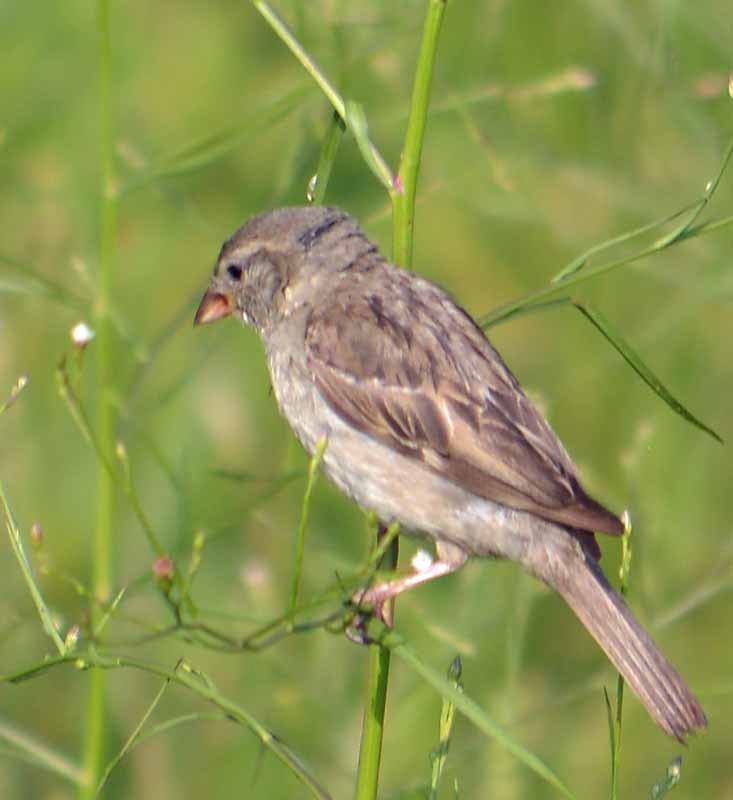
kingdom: Animalia
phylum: Chordata
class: Aves
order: Passeriformes
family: Passeridae
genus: Passer
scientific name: Passer domesticus
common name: House sparrow
